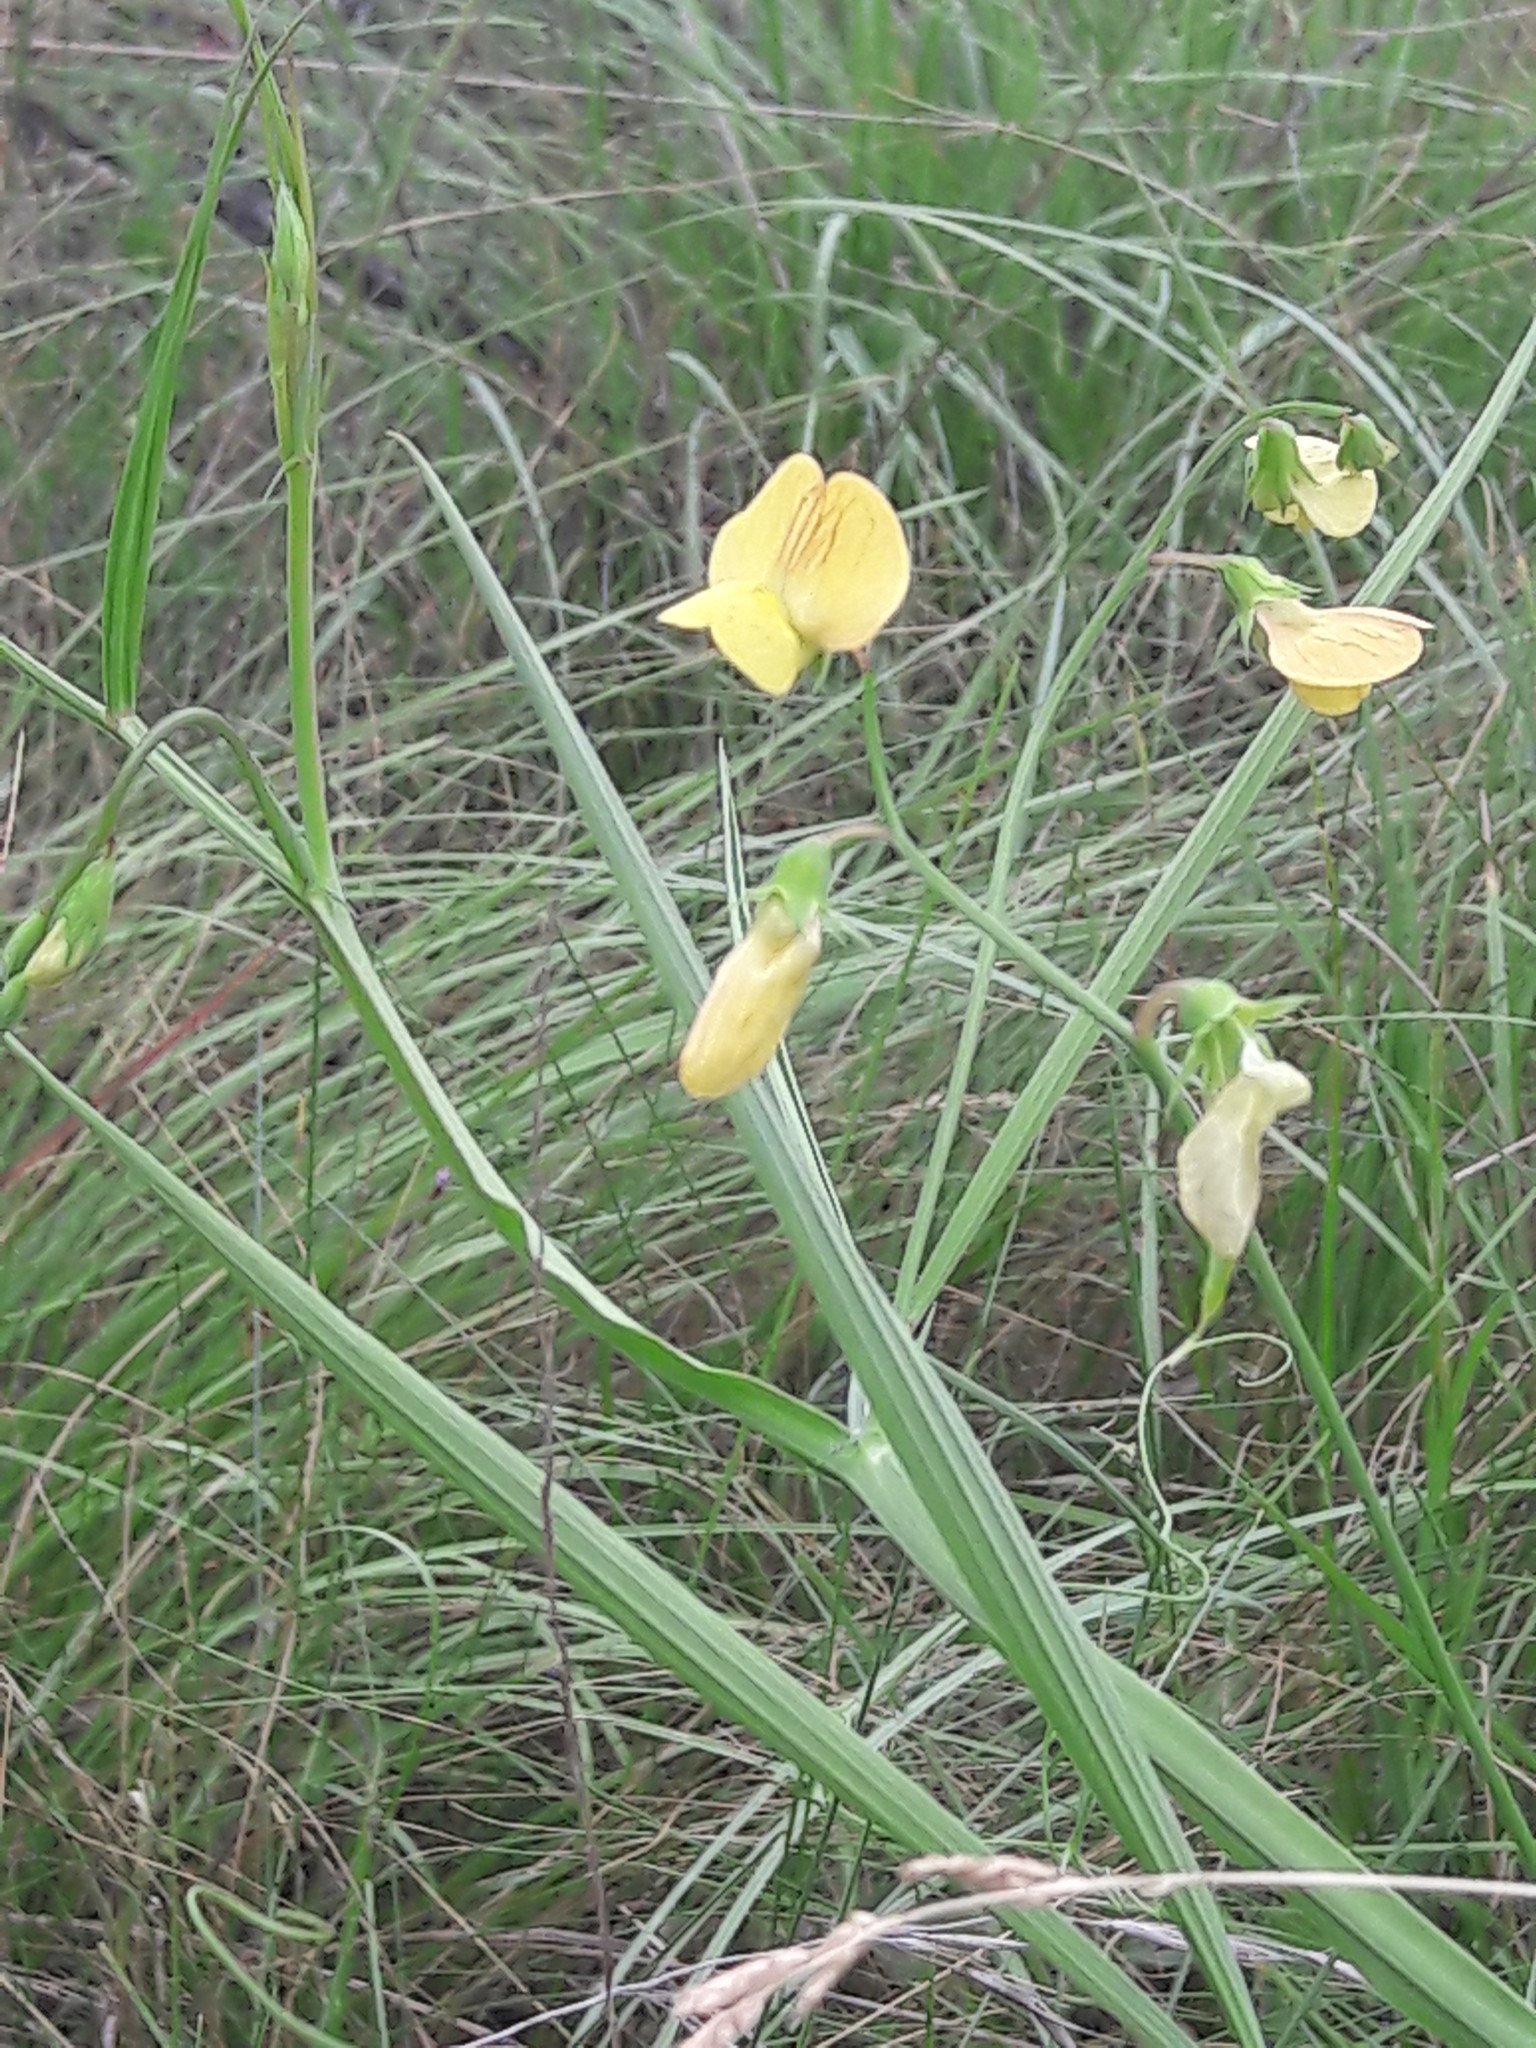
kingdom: Plantae
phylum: Tracheophyta
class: Magnoliopsida
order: Fabales
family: Fabaceae
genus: Lathyrus
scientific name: Lathyrus annuus
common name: Fodder pea
